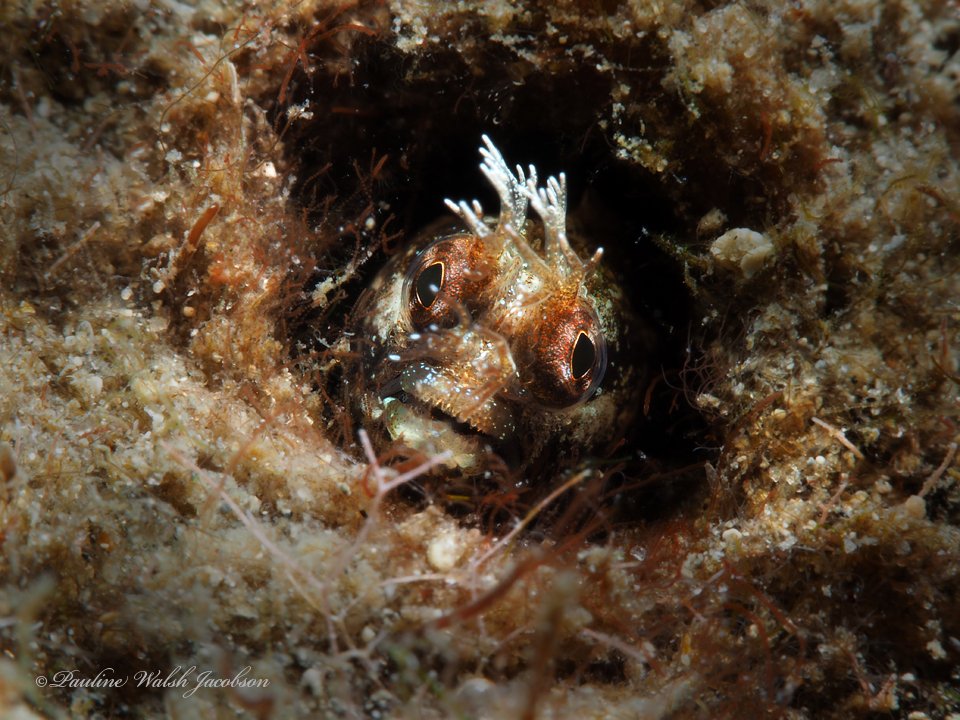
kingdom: Animalia
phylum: Chordata
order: Perciformes
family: Chaenopsidae
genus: Acanthemblemaria
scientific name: Acanthemblemaria aspera
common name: Roughhead blenny
